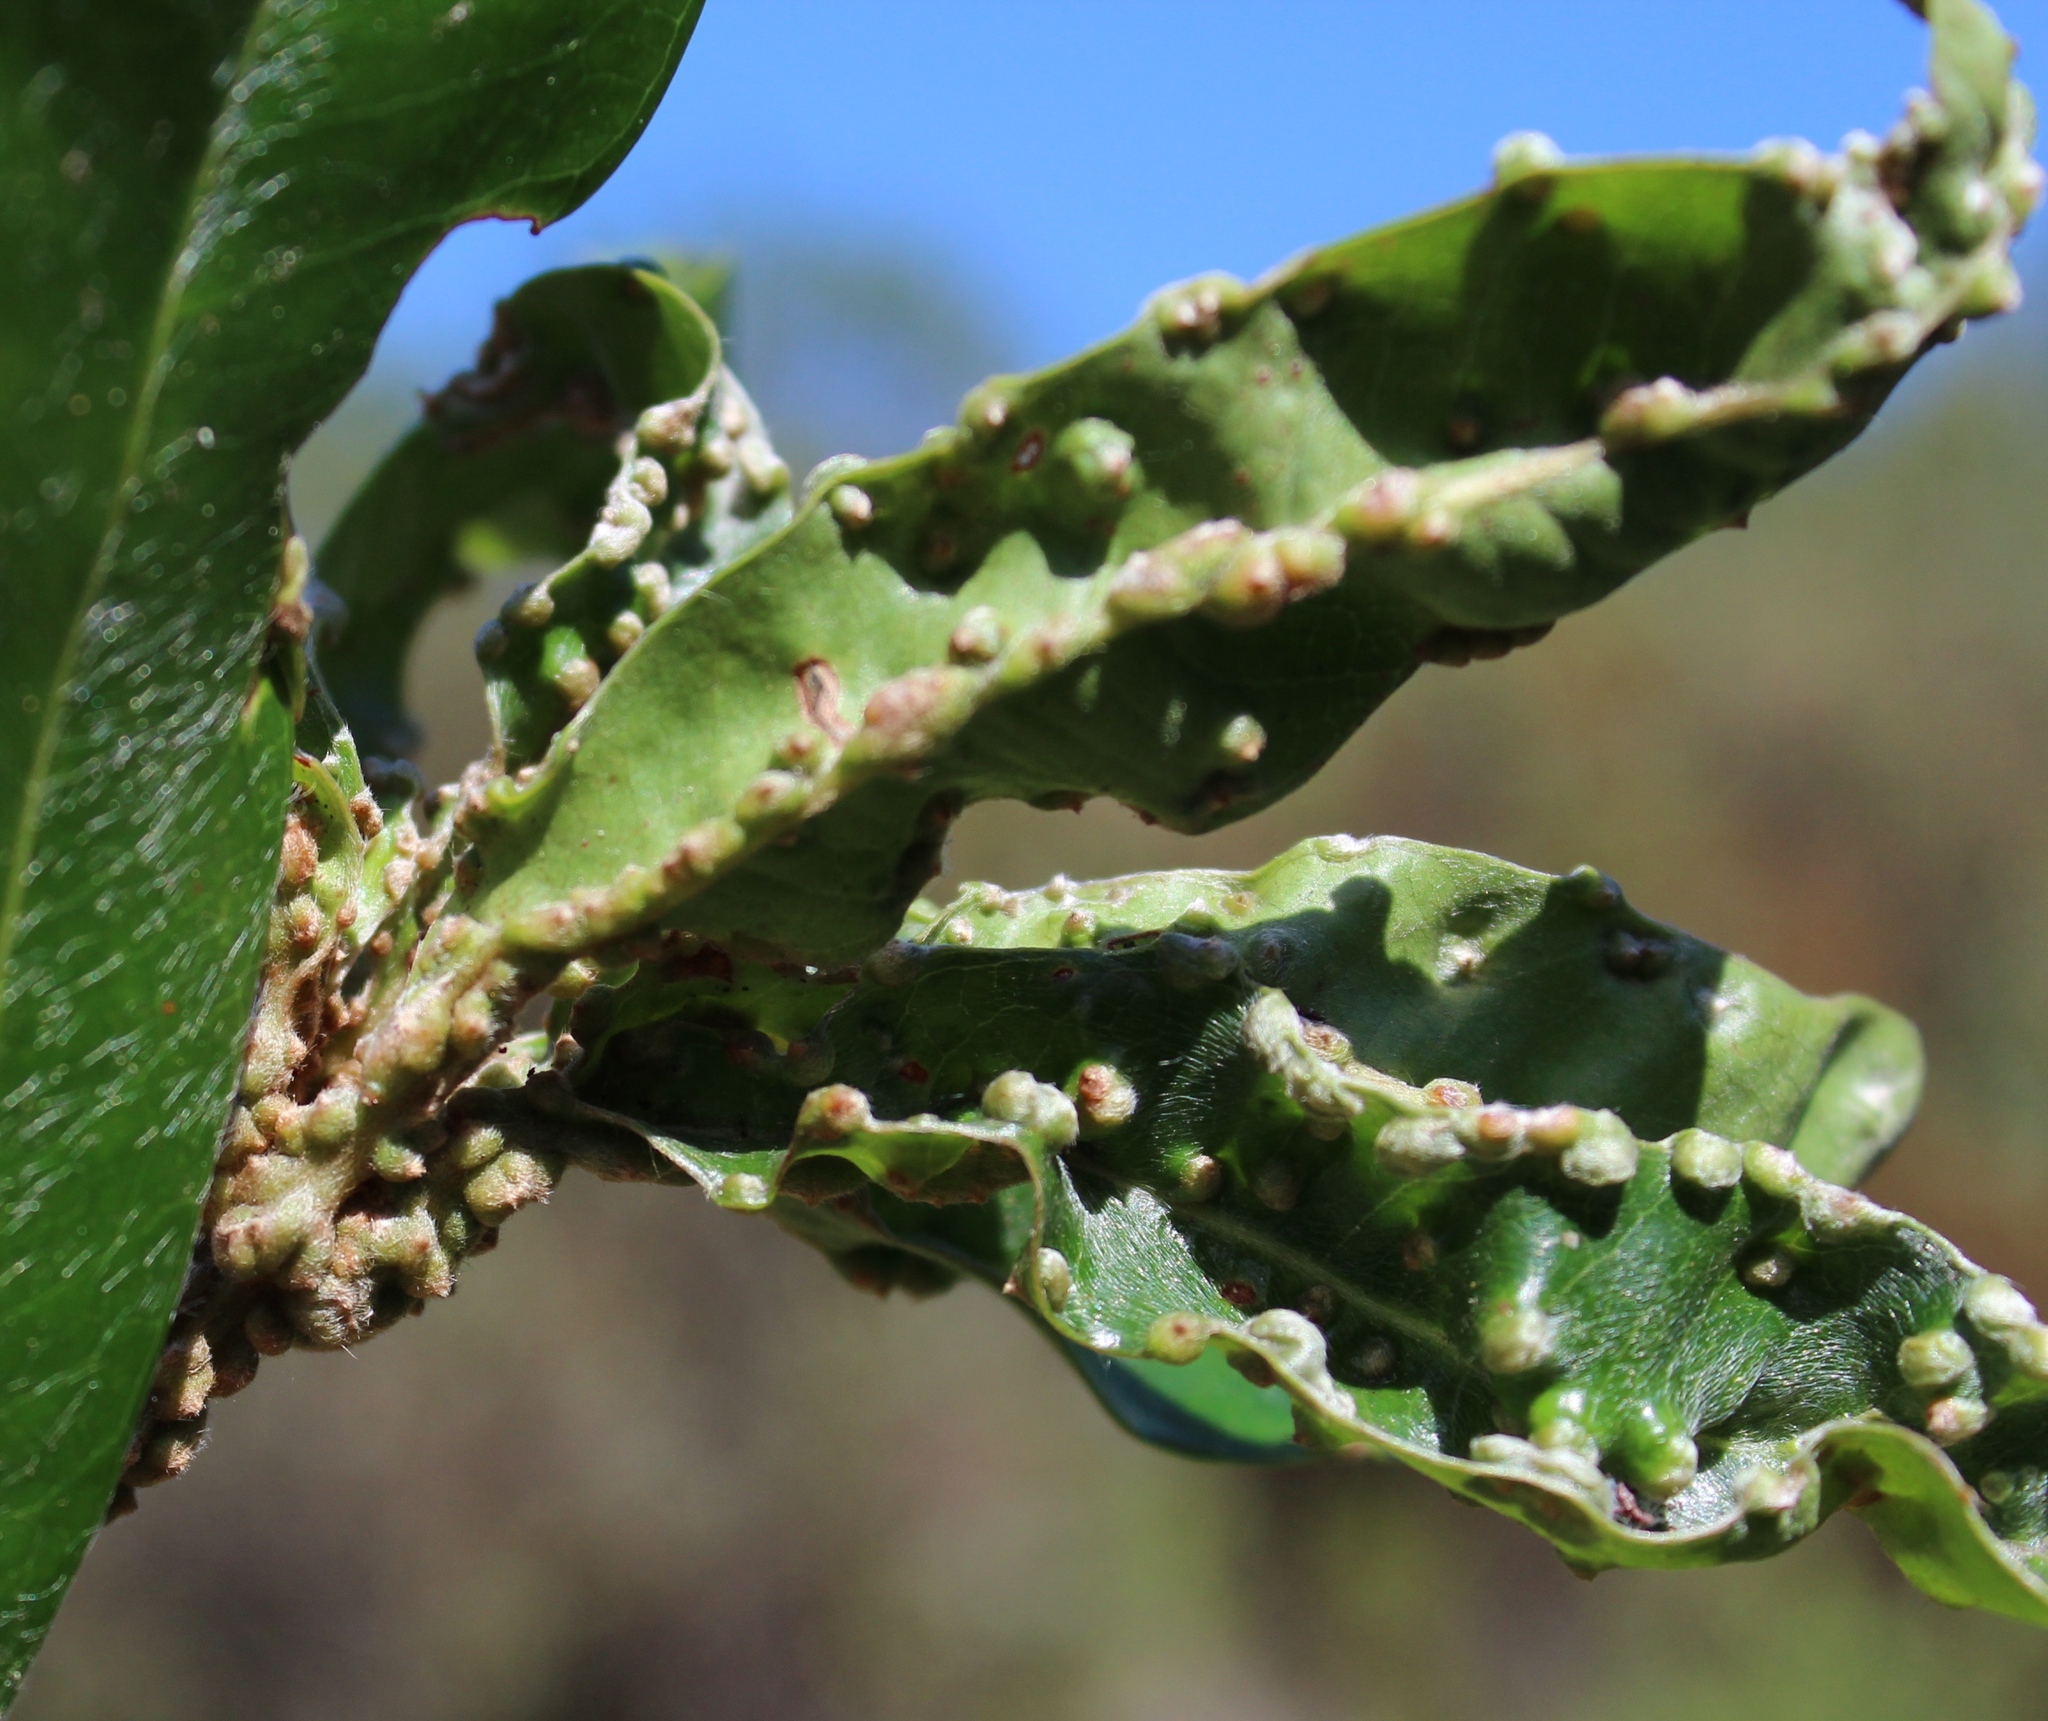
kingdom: Animalia
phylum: Arthropoda
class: Arachnida
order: Trombidiformes
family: Eriophyidae
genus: Aceria
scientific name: Aceria
